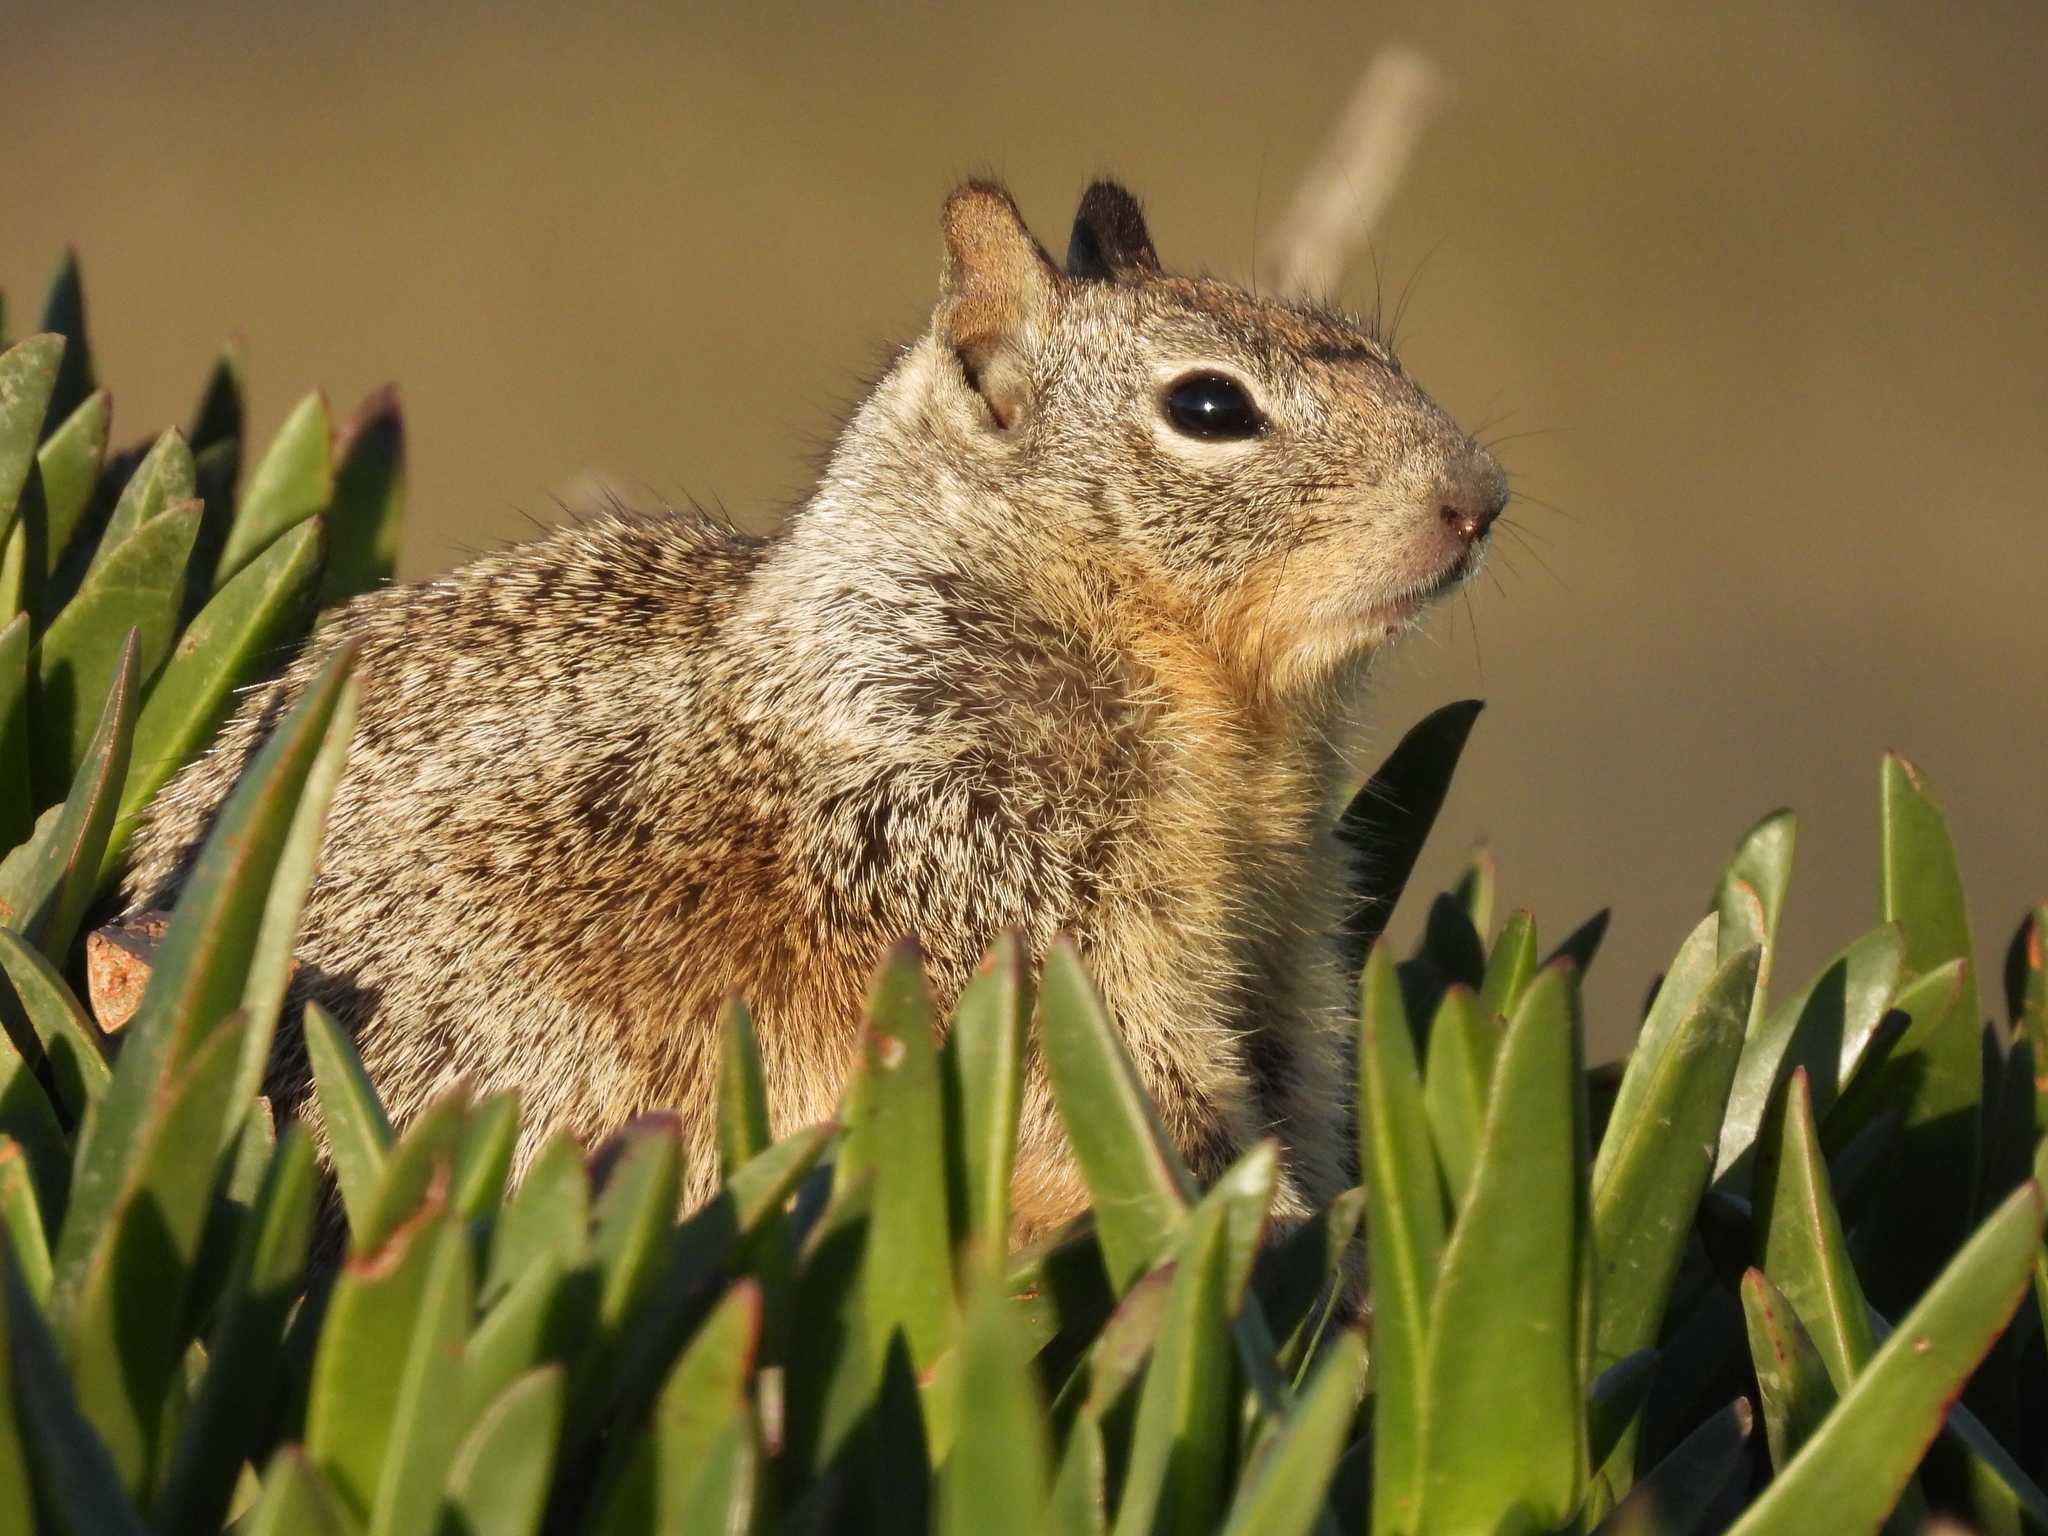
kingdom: Animalia
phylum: Chordata
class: Mammalia
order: Rodentia
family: Sciuridae
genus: Otospermophilus
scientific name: Otospermophilus beecheyi
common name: California ground squirrel
